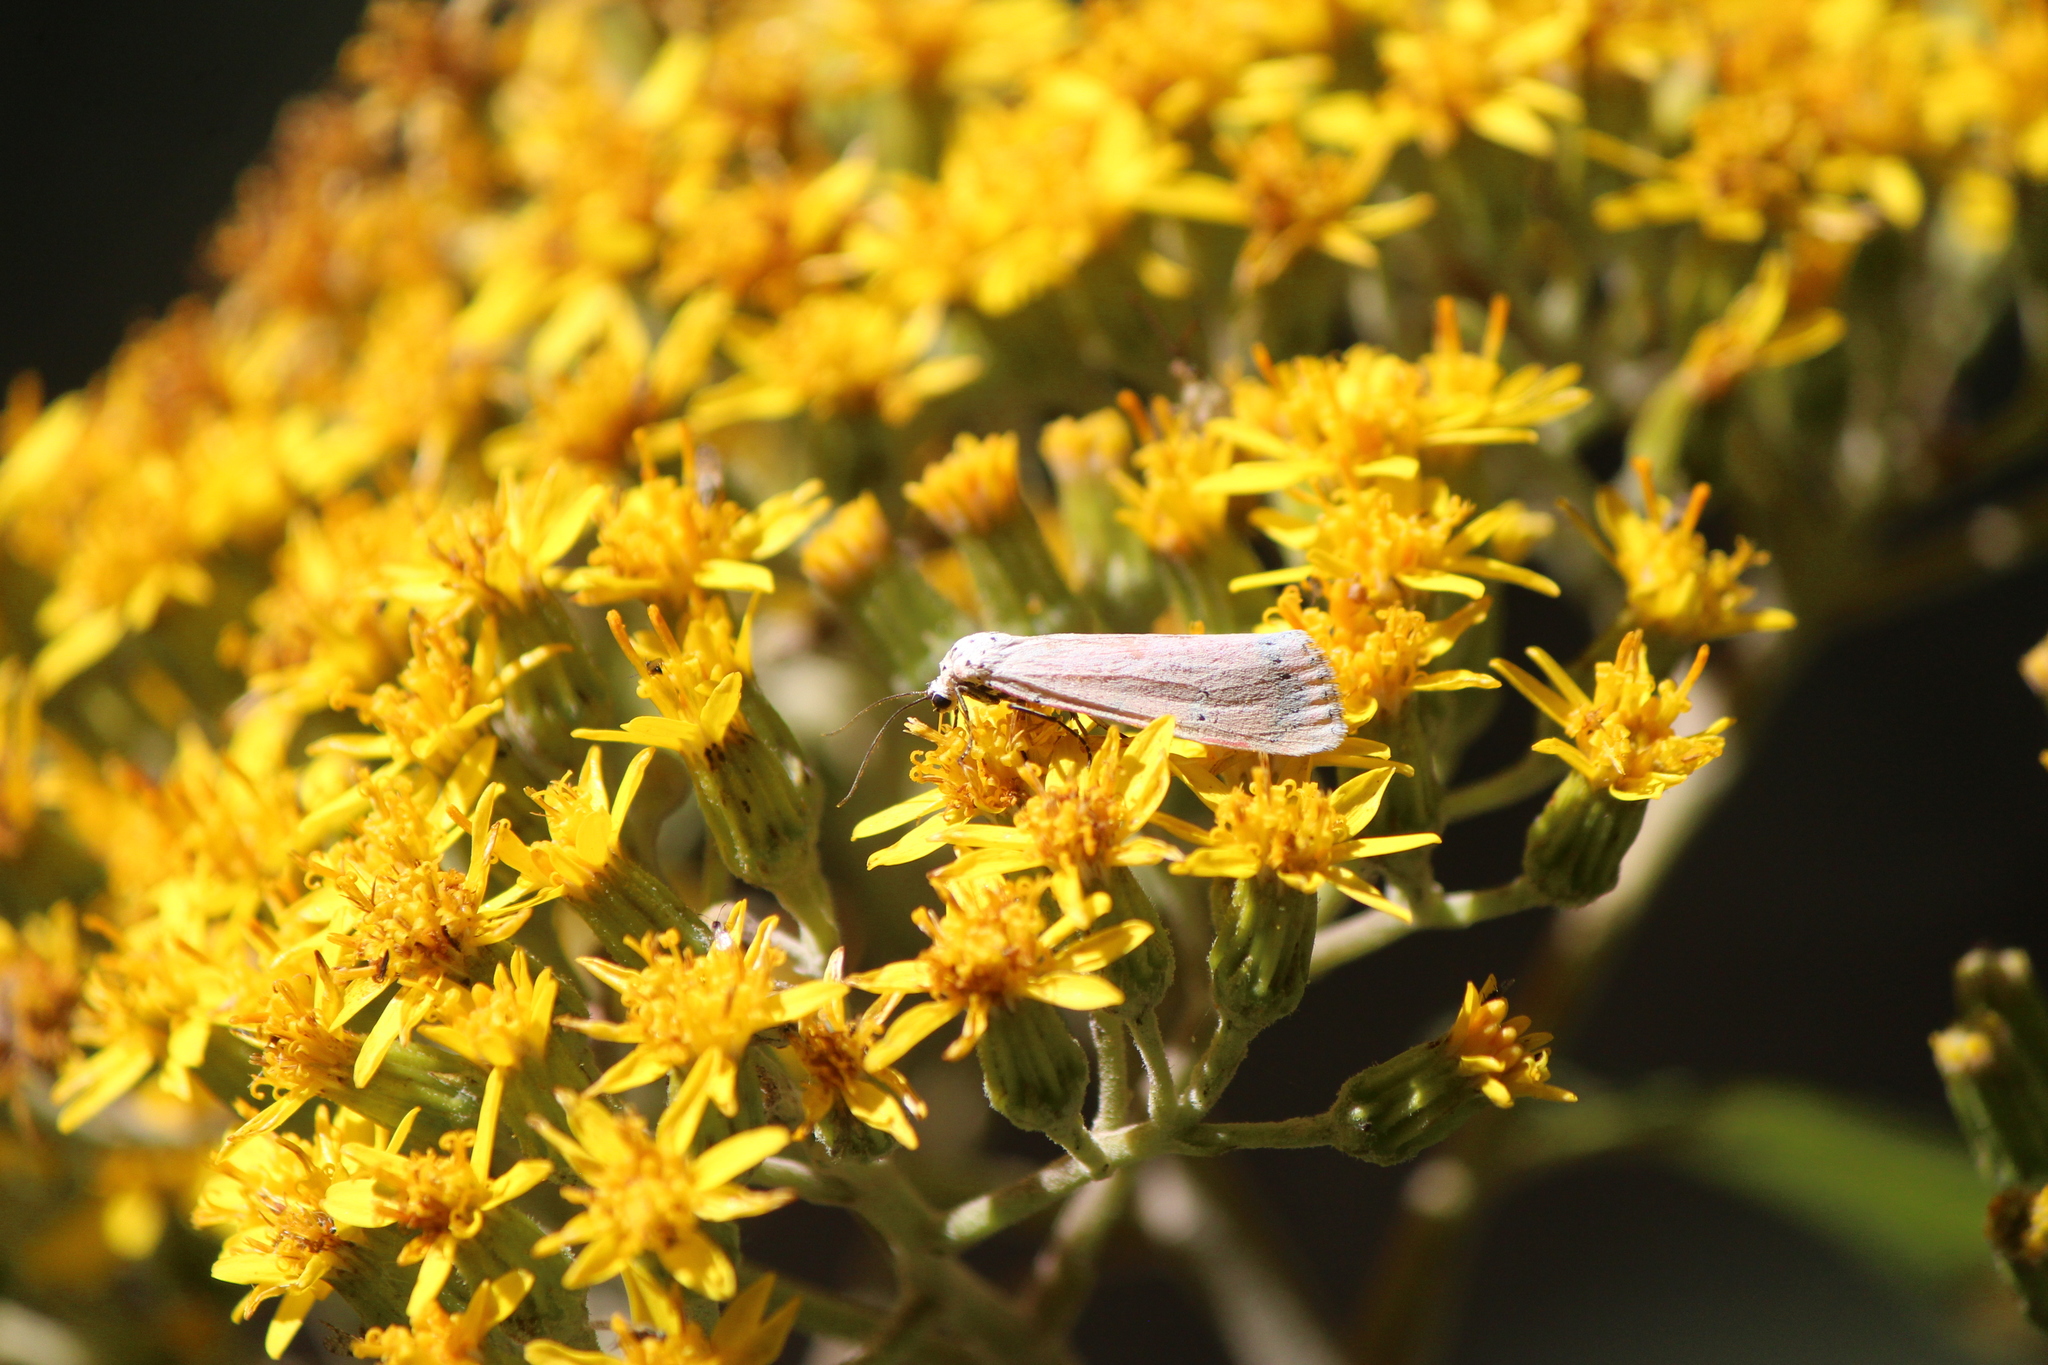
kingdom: Animalia
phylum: Arthropoda
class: Insecta
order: Lepidoptera
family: Erebidae
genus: Utetheisa
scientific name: Utetheisa ornatrix
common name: Beautiful utetheisa
